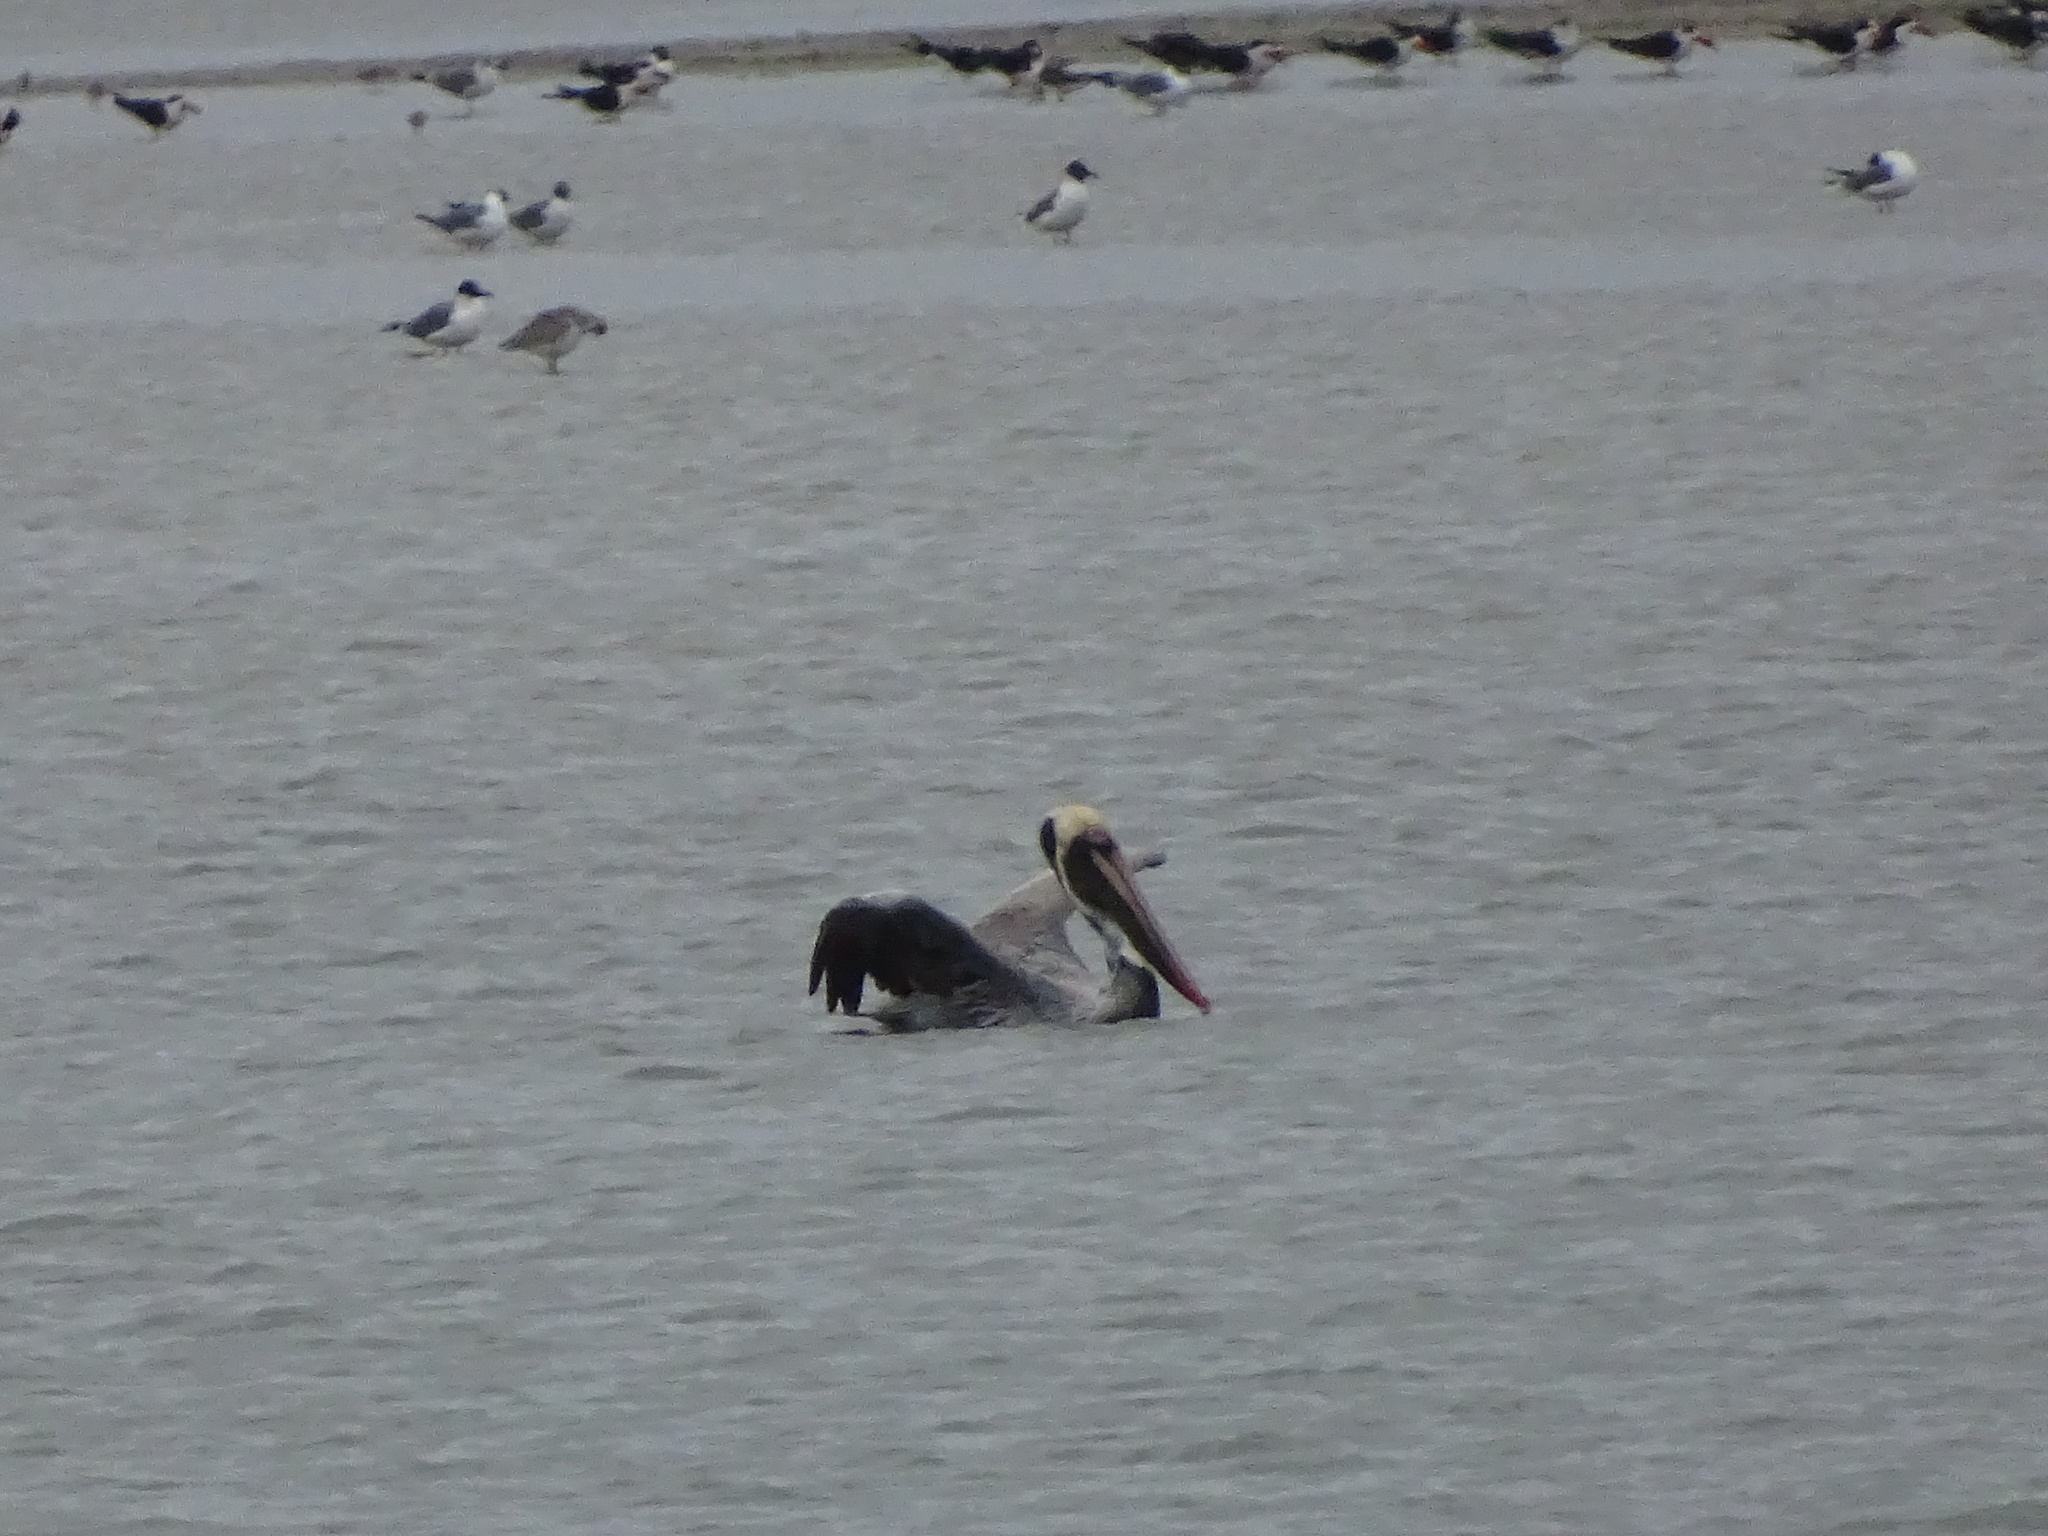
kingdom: Animalia
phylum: Chordata
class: Aves
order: Pelecaniformes
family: Pelecanidae
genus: Pelecanus
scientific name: Pelecanus occidentalis
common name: Brown pelican
